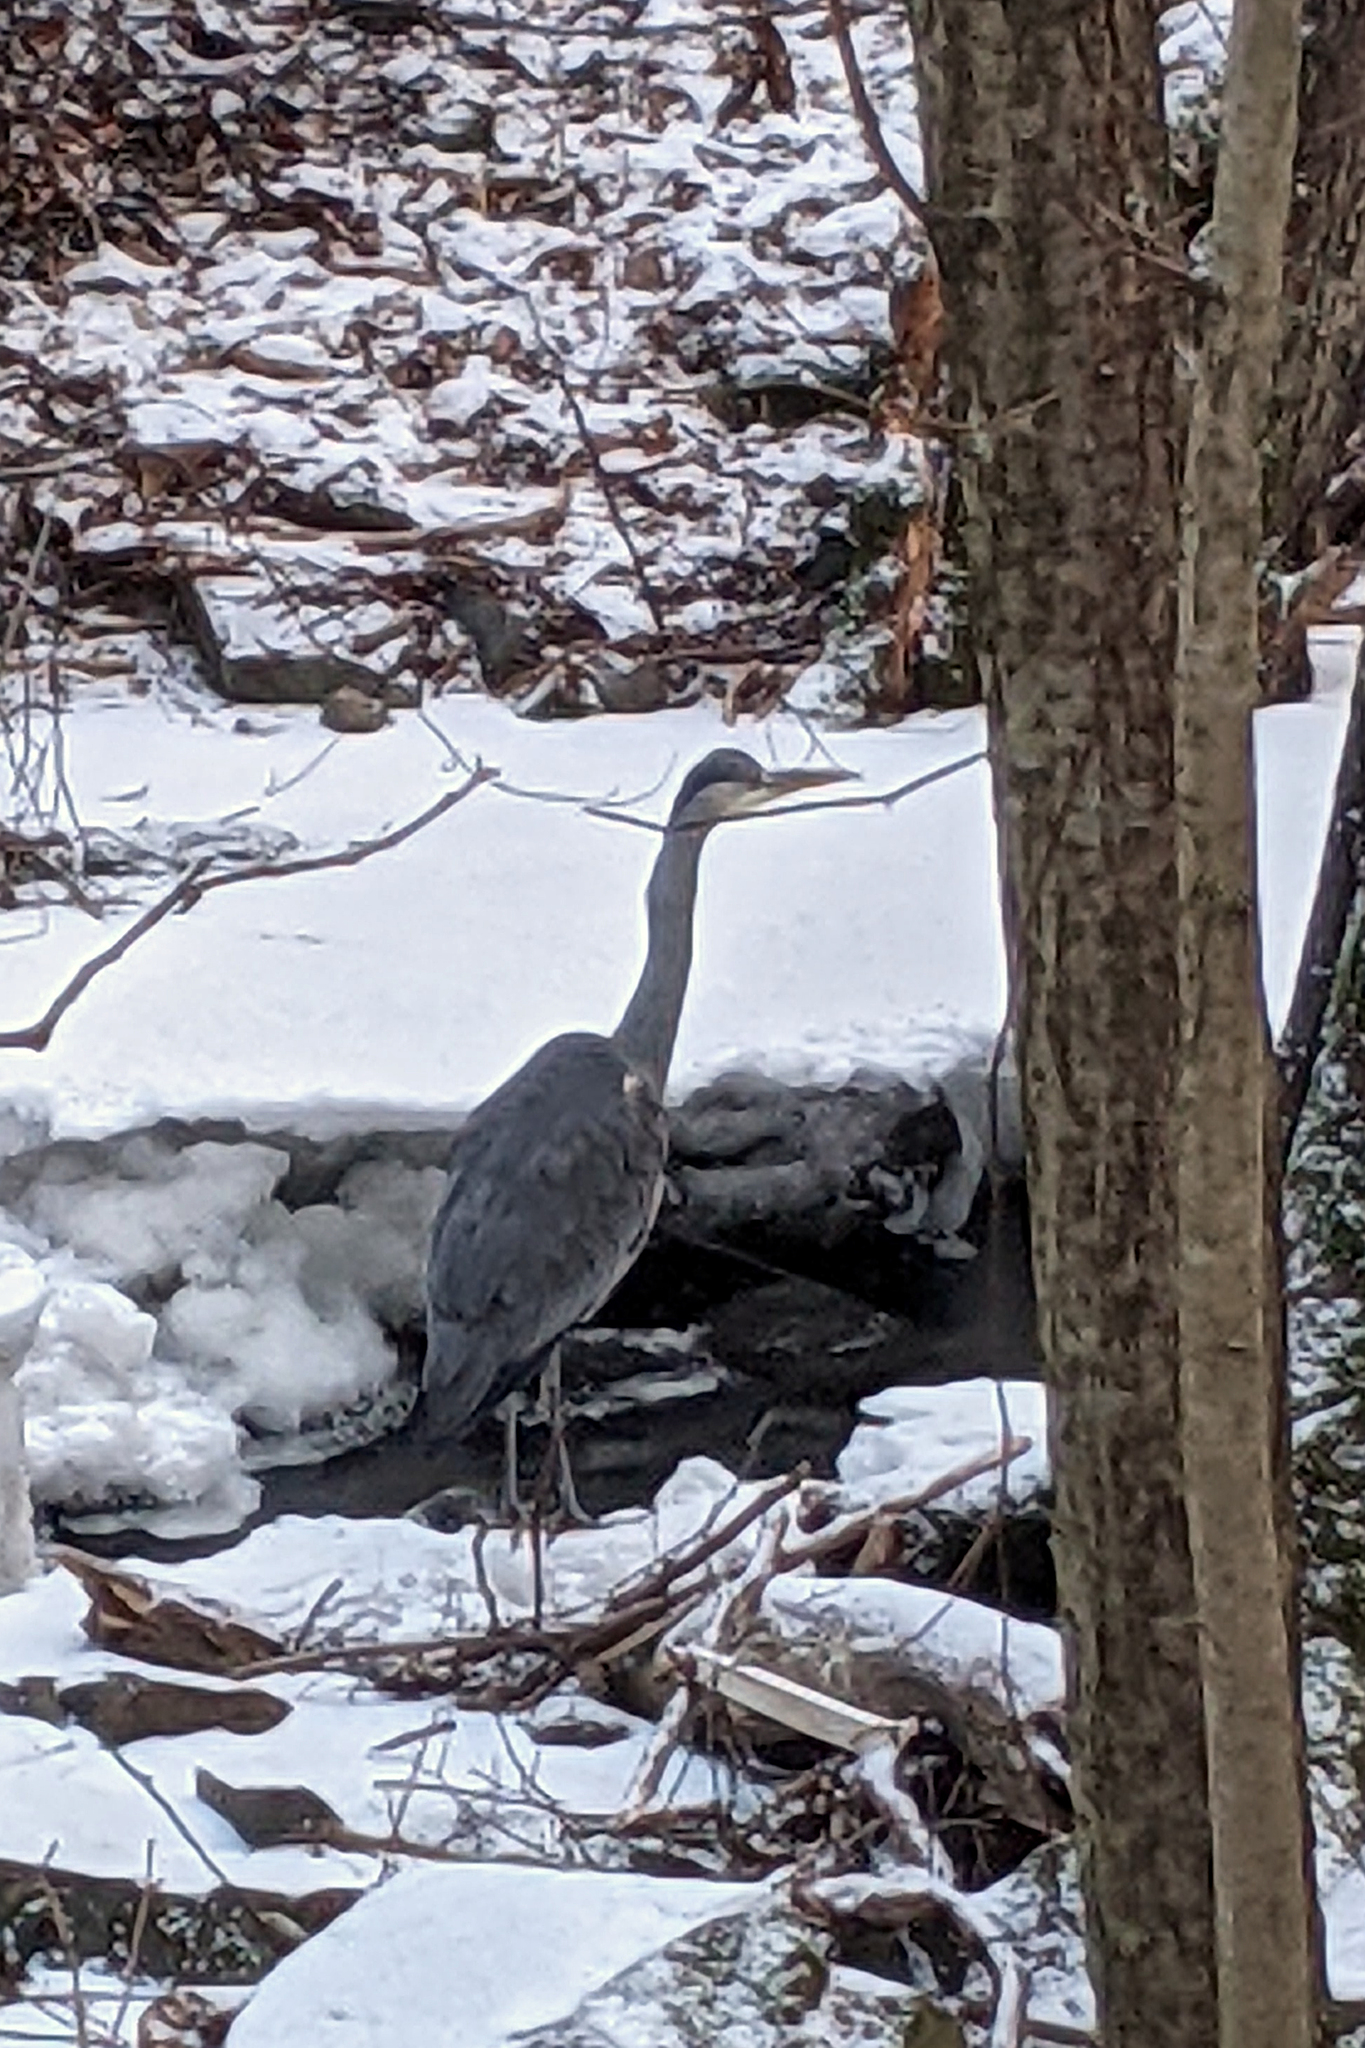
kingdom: Animalia
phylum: Chordata
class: Aves
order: Pelecaniformes
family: Ardeidae
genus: Ardea
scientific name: Ardea cinerea
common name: Grey heron
